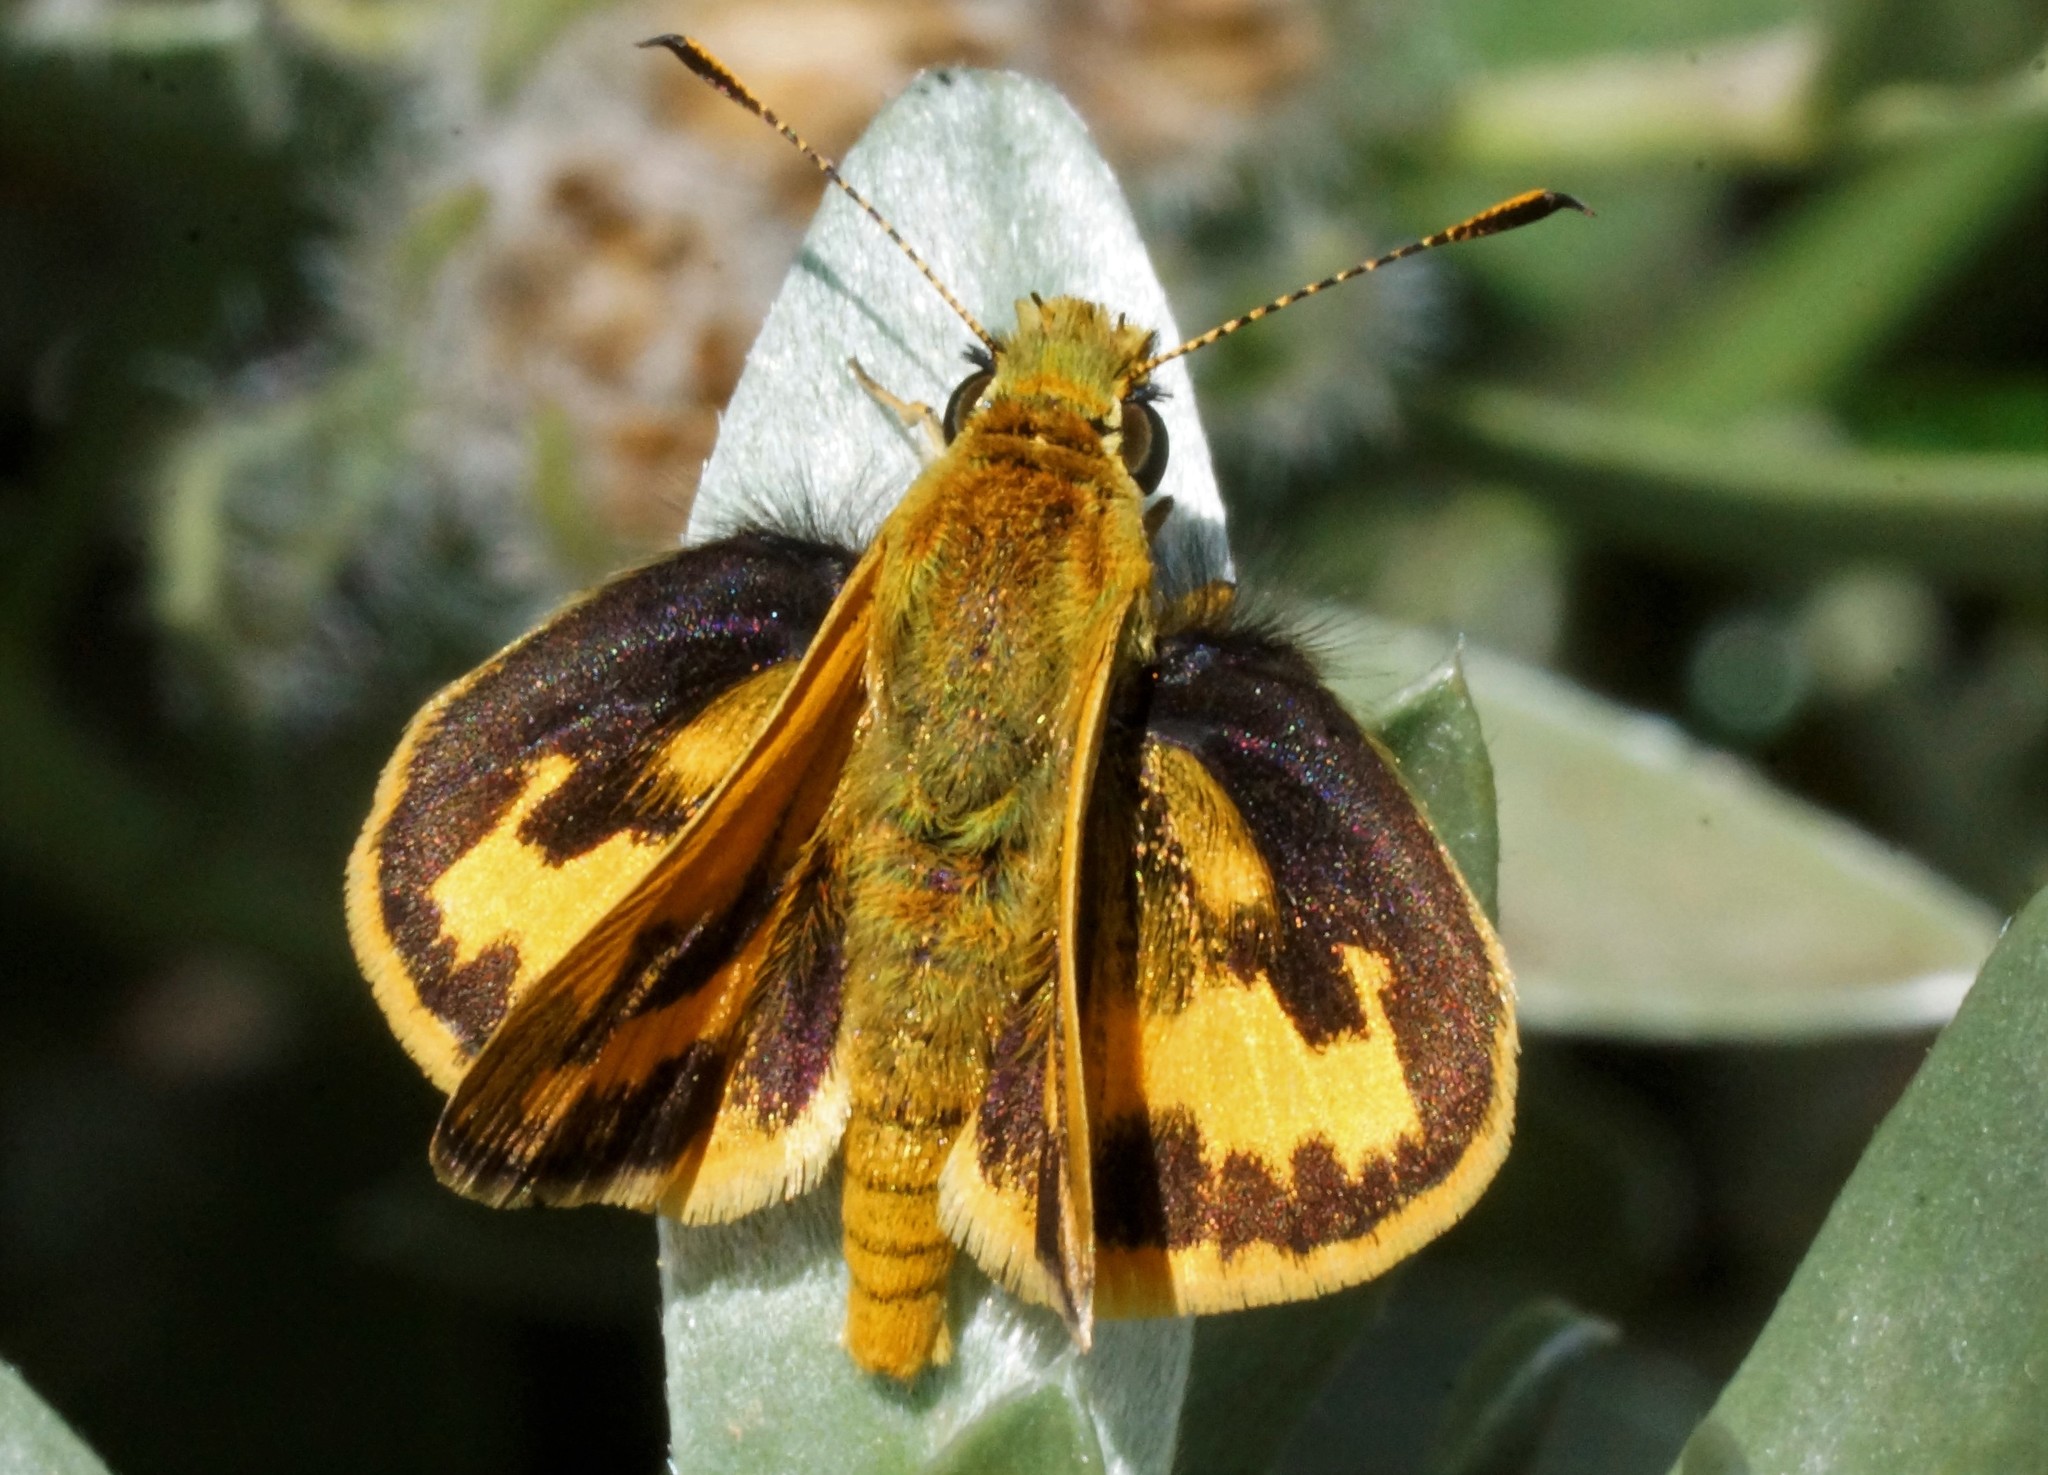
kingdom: Animalia
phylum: Arthropoda
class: Insecta
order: Lepidoptera
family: Hesperiidae
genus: Ocybadistes
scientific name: Ocybadistes walkeri
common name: Yellow-banded dart
